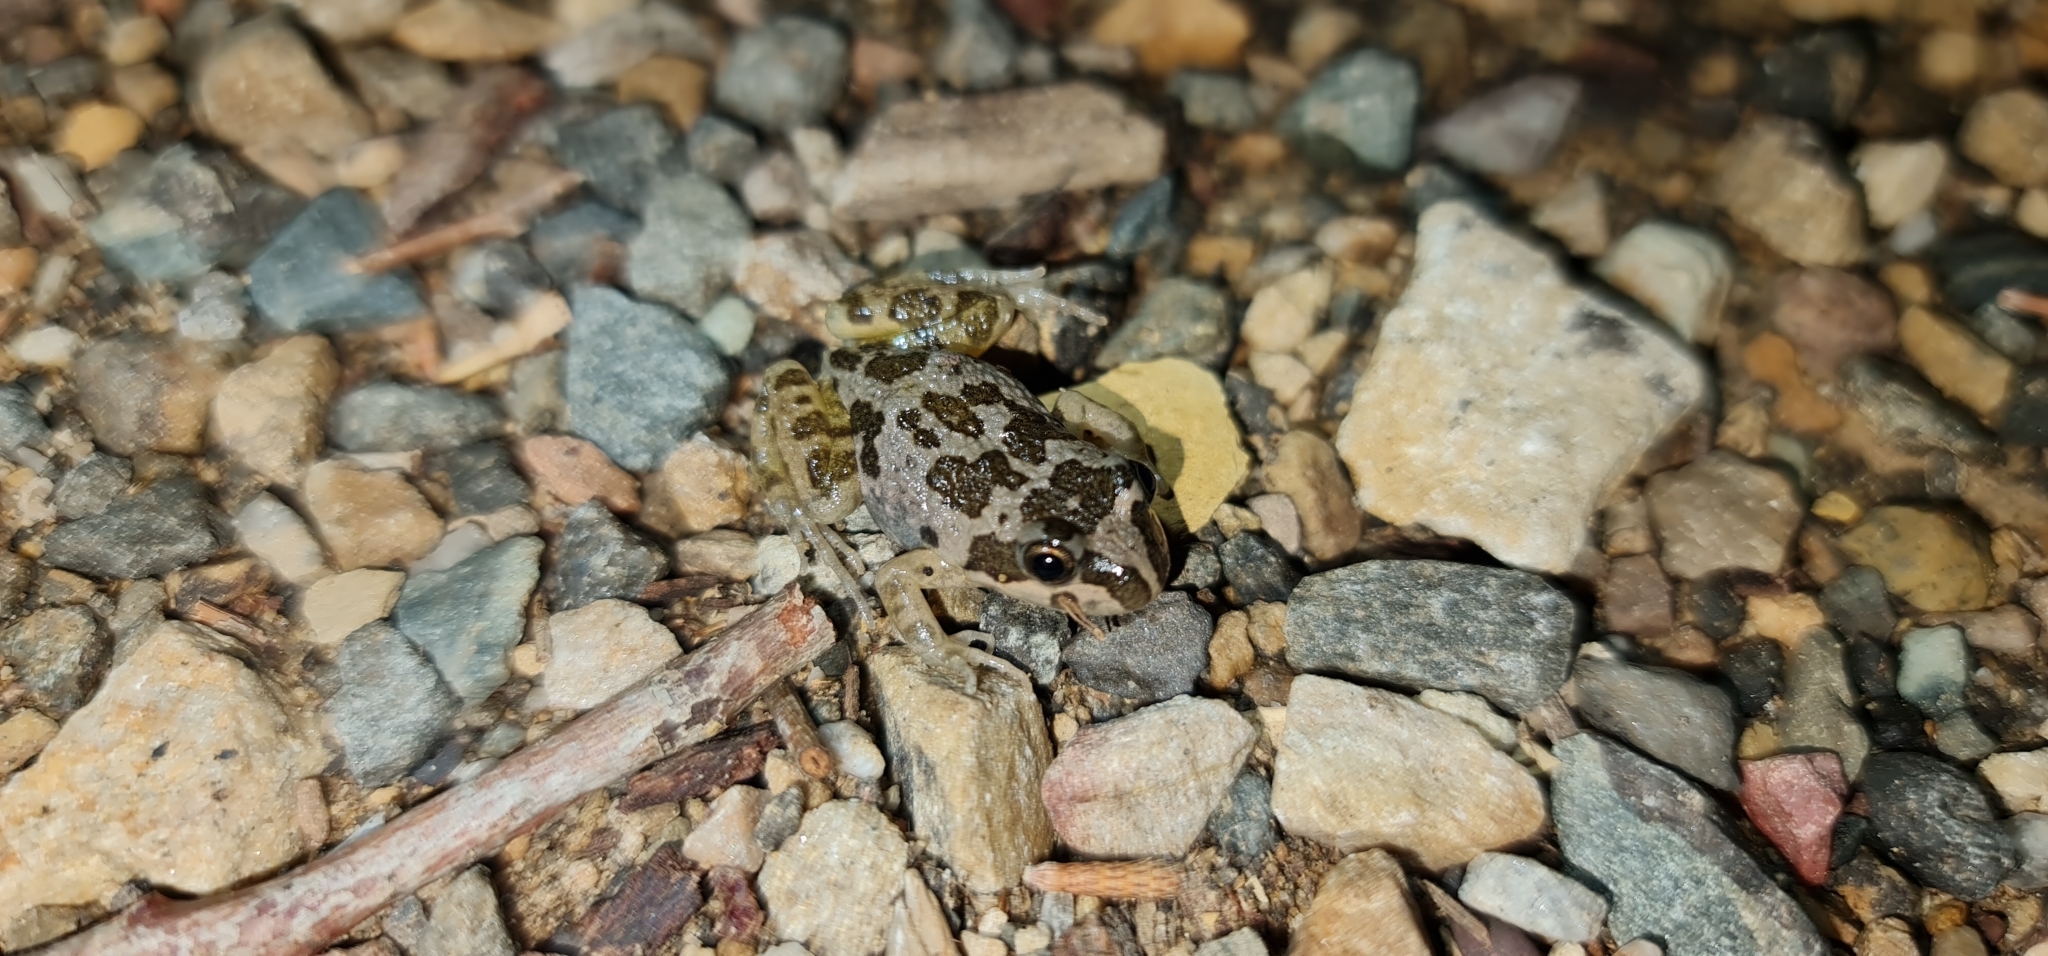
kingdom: Animalia
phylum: Chordata
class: Amphibia
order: Anura
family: Limnodynastidae
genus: Limnodynastes
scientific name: Limnodynastes tasmaniensis
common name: Spotted marsh frog
